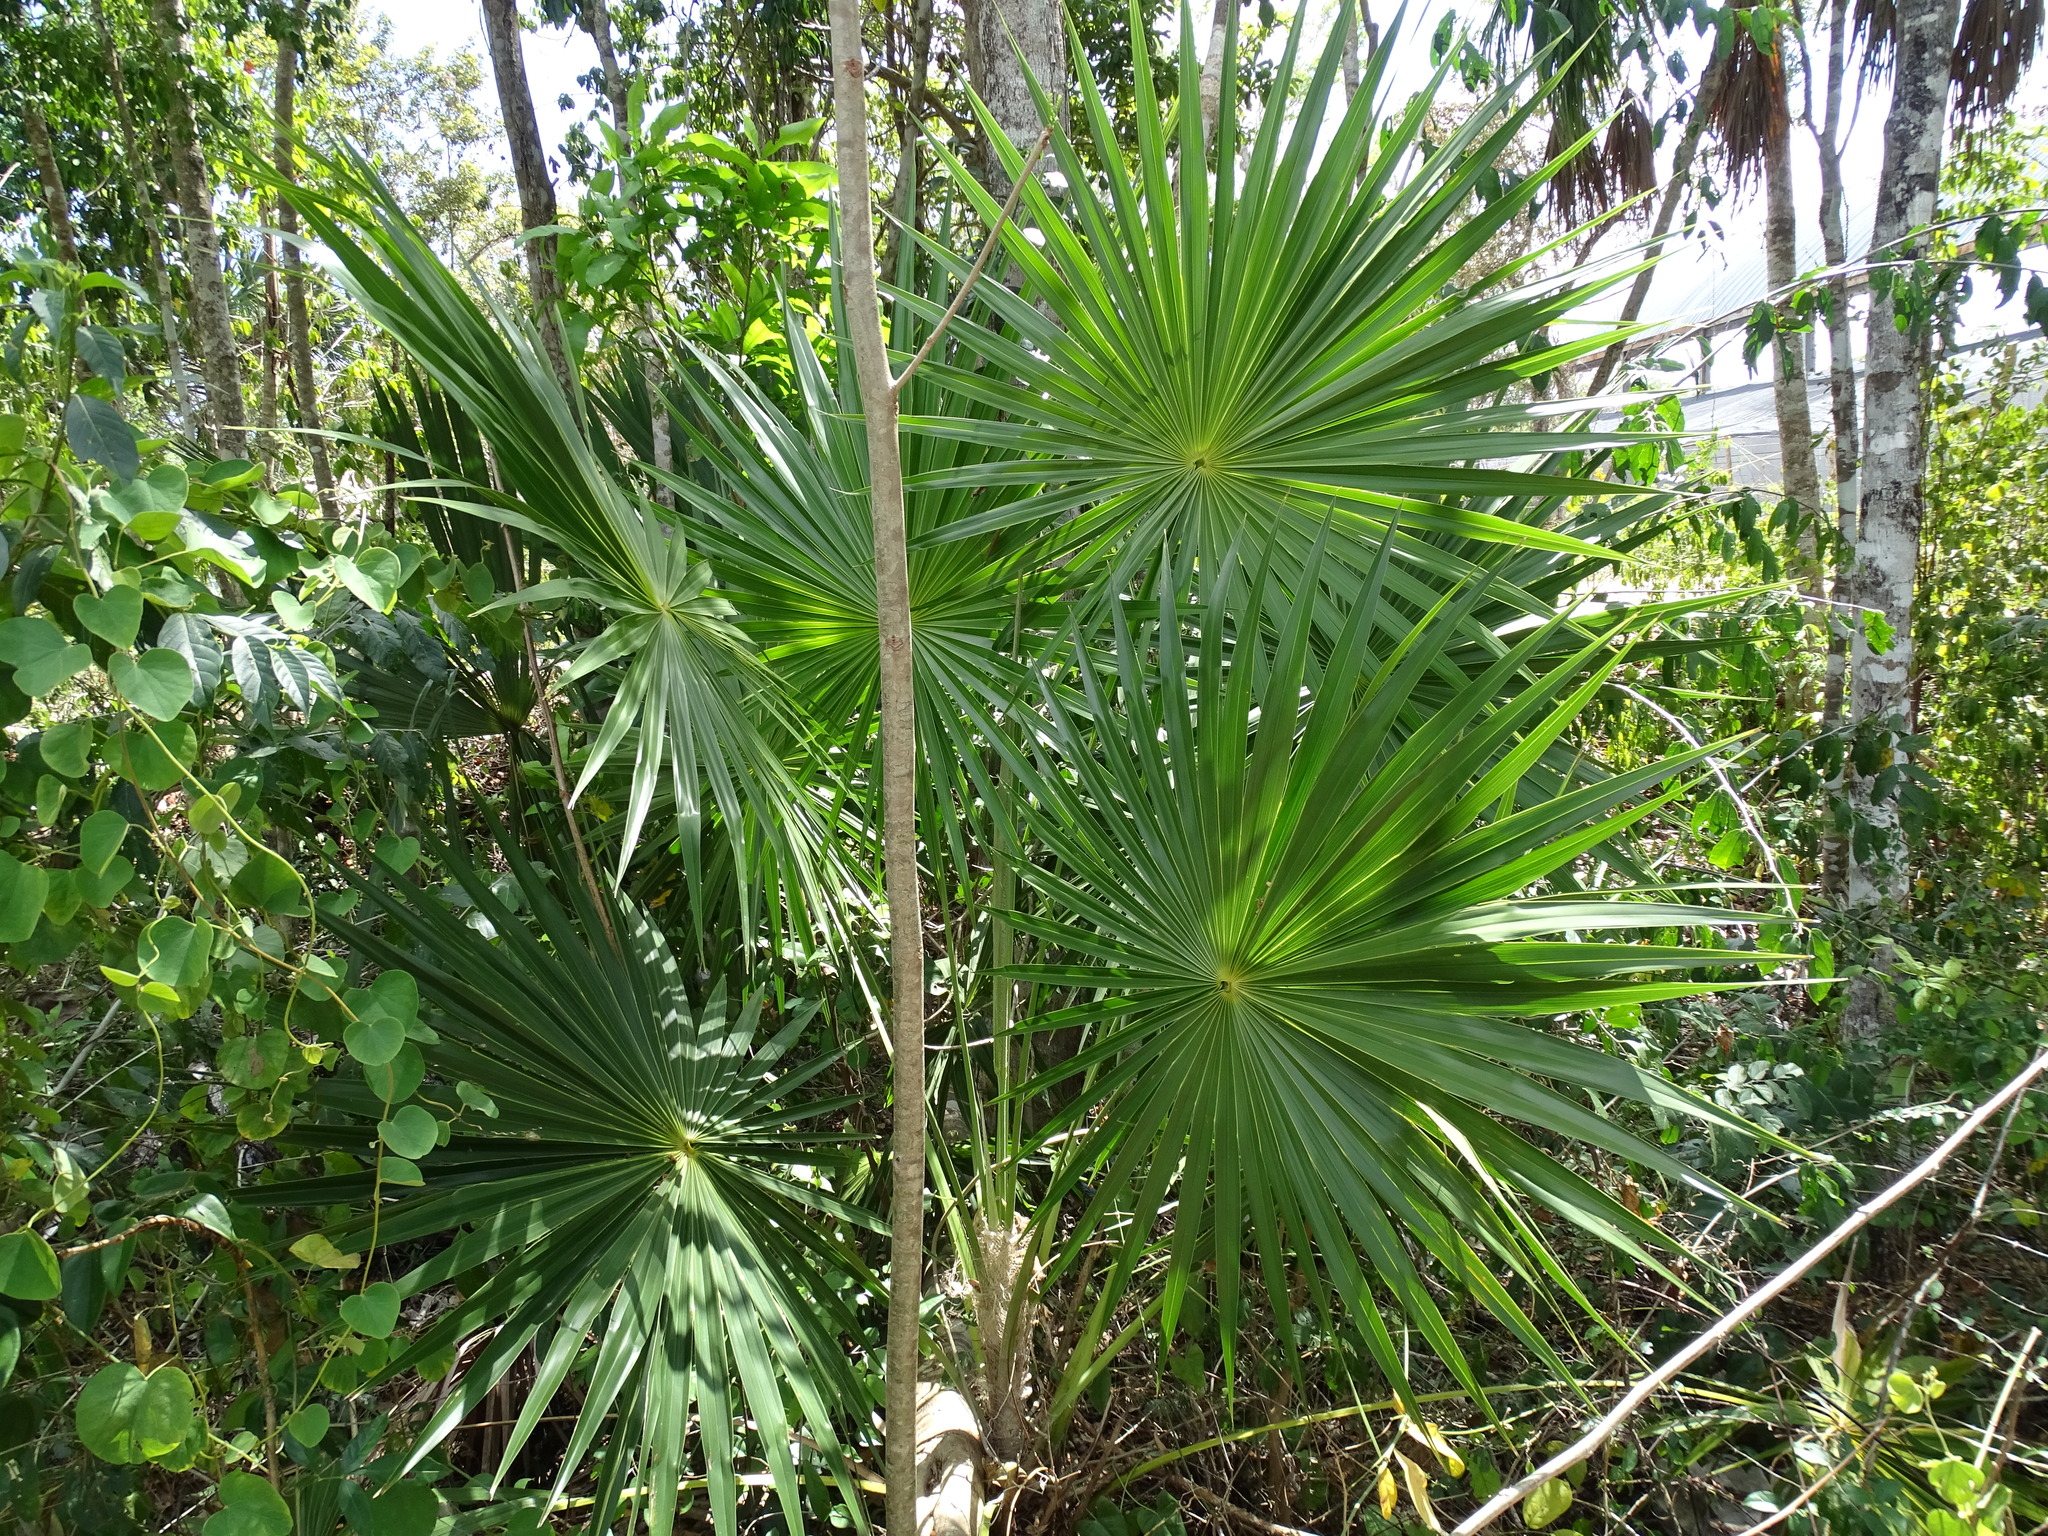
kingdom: Plantae
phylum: Tracheophyta
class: Liliopsida
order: Arecales
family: Arecaceae
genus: Thrinax
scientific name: Thrinax radiata
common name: Florida thatch
